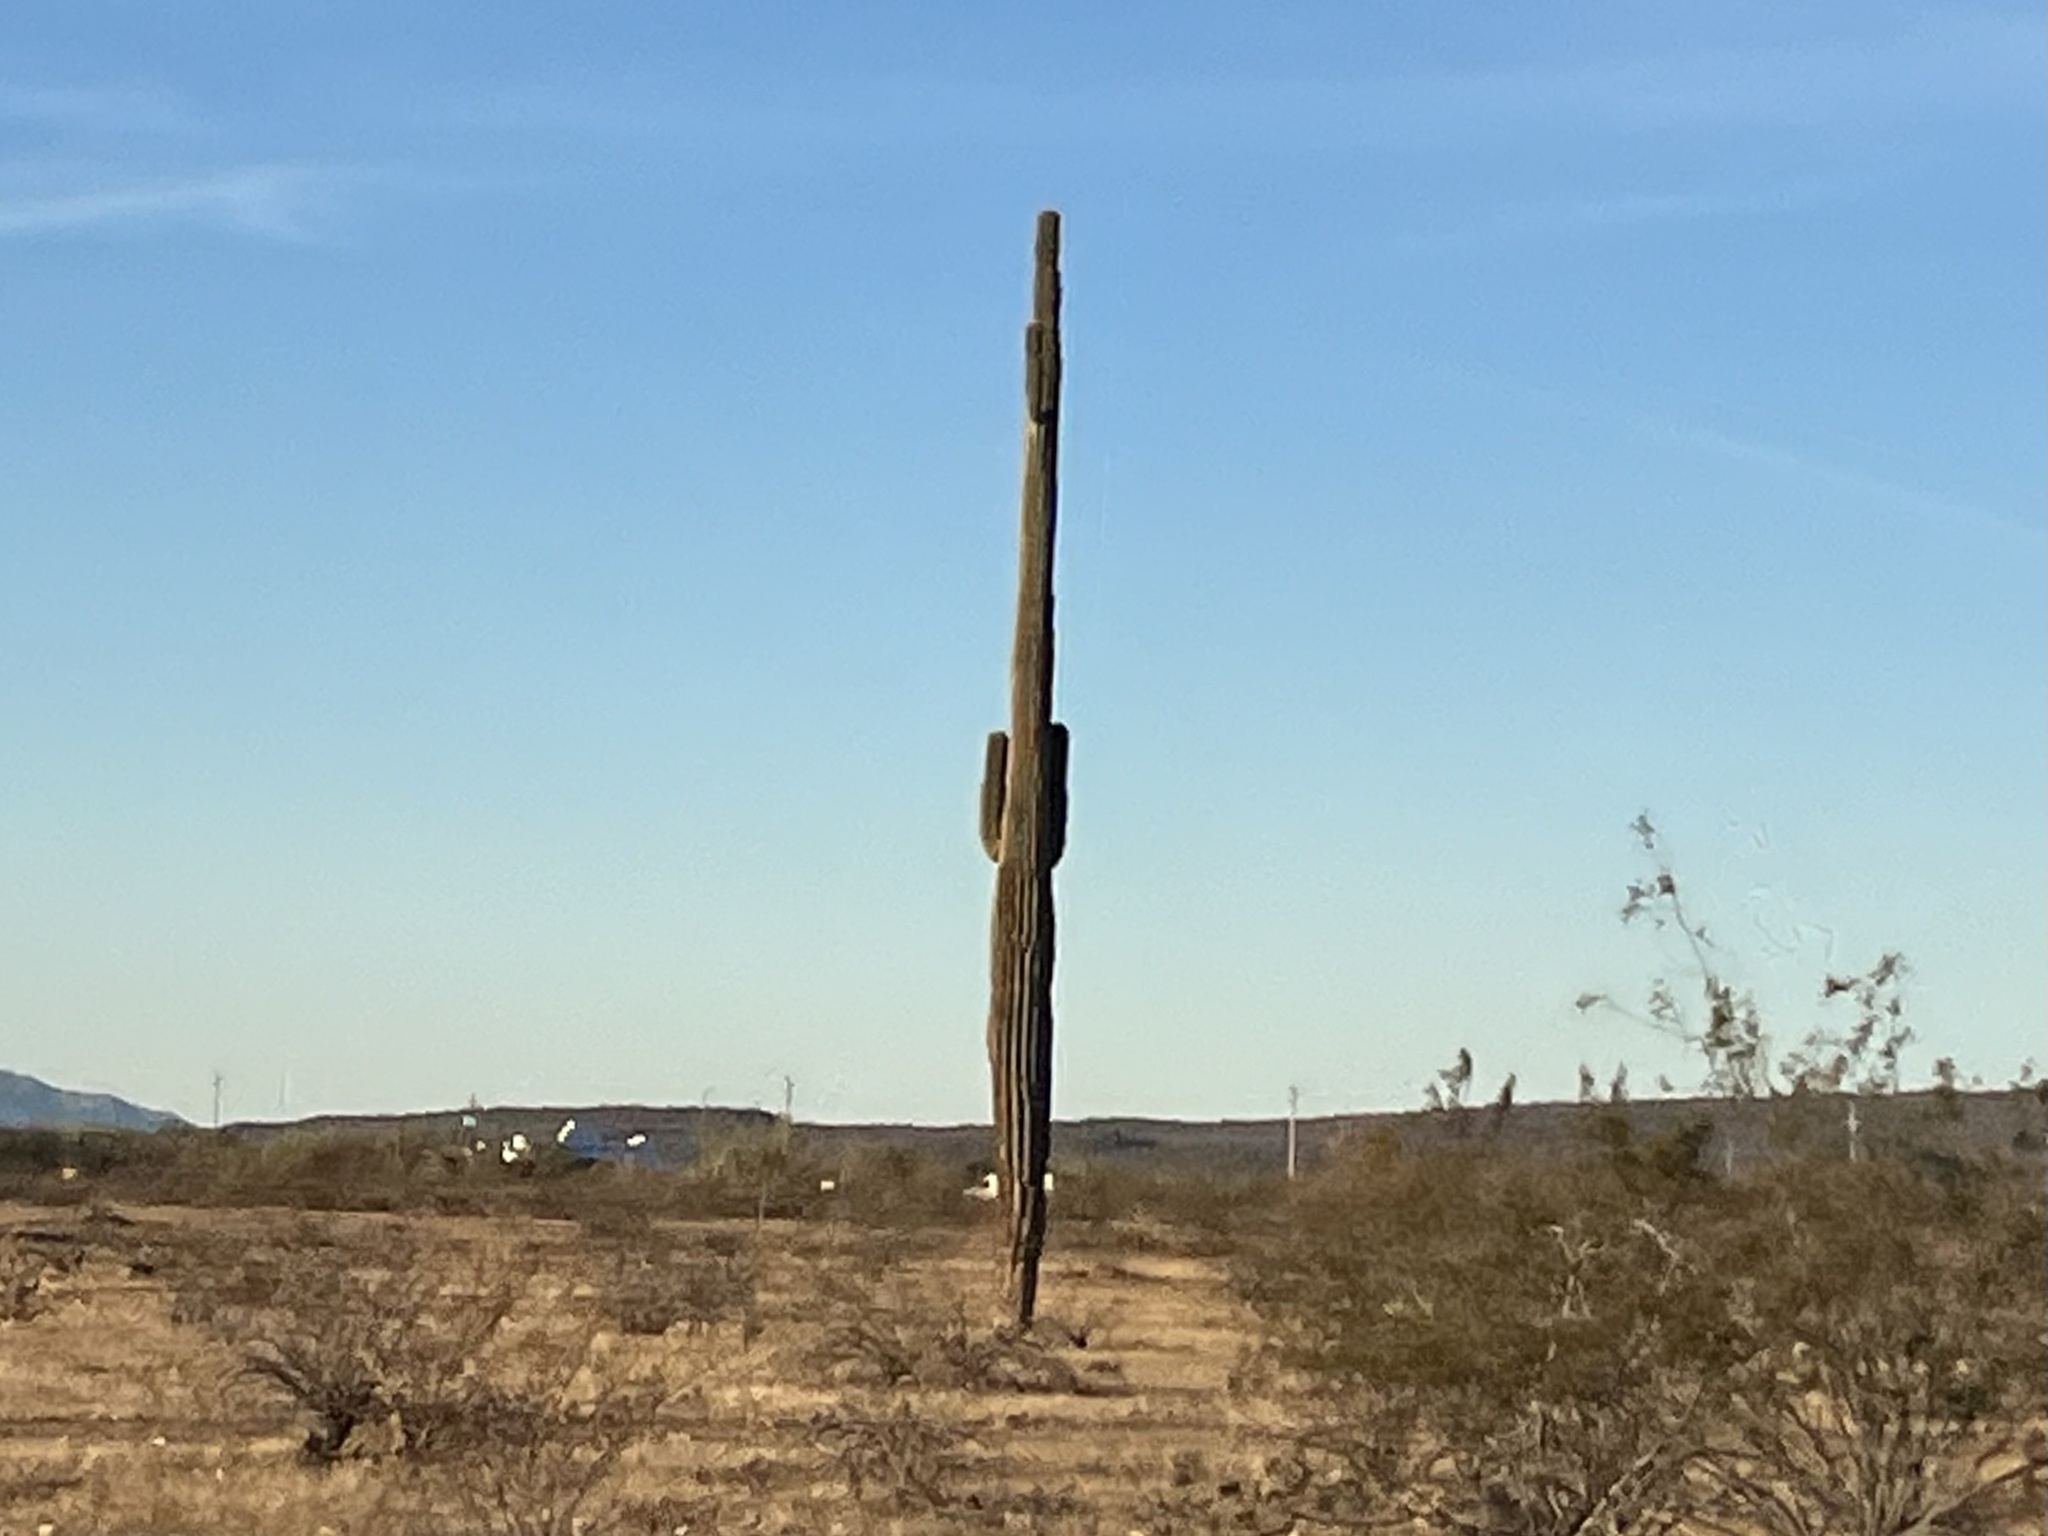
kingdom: Plantae
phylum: Tracheophyta
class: Magnoliopsida
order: Caryophyllales
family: Cactaceae
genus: Carnegiea
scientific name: Carnegiea gigantea
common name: Saguaro
